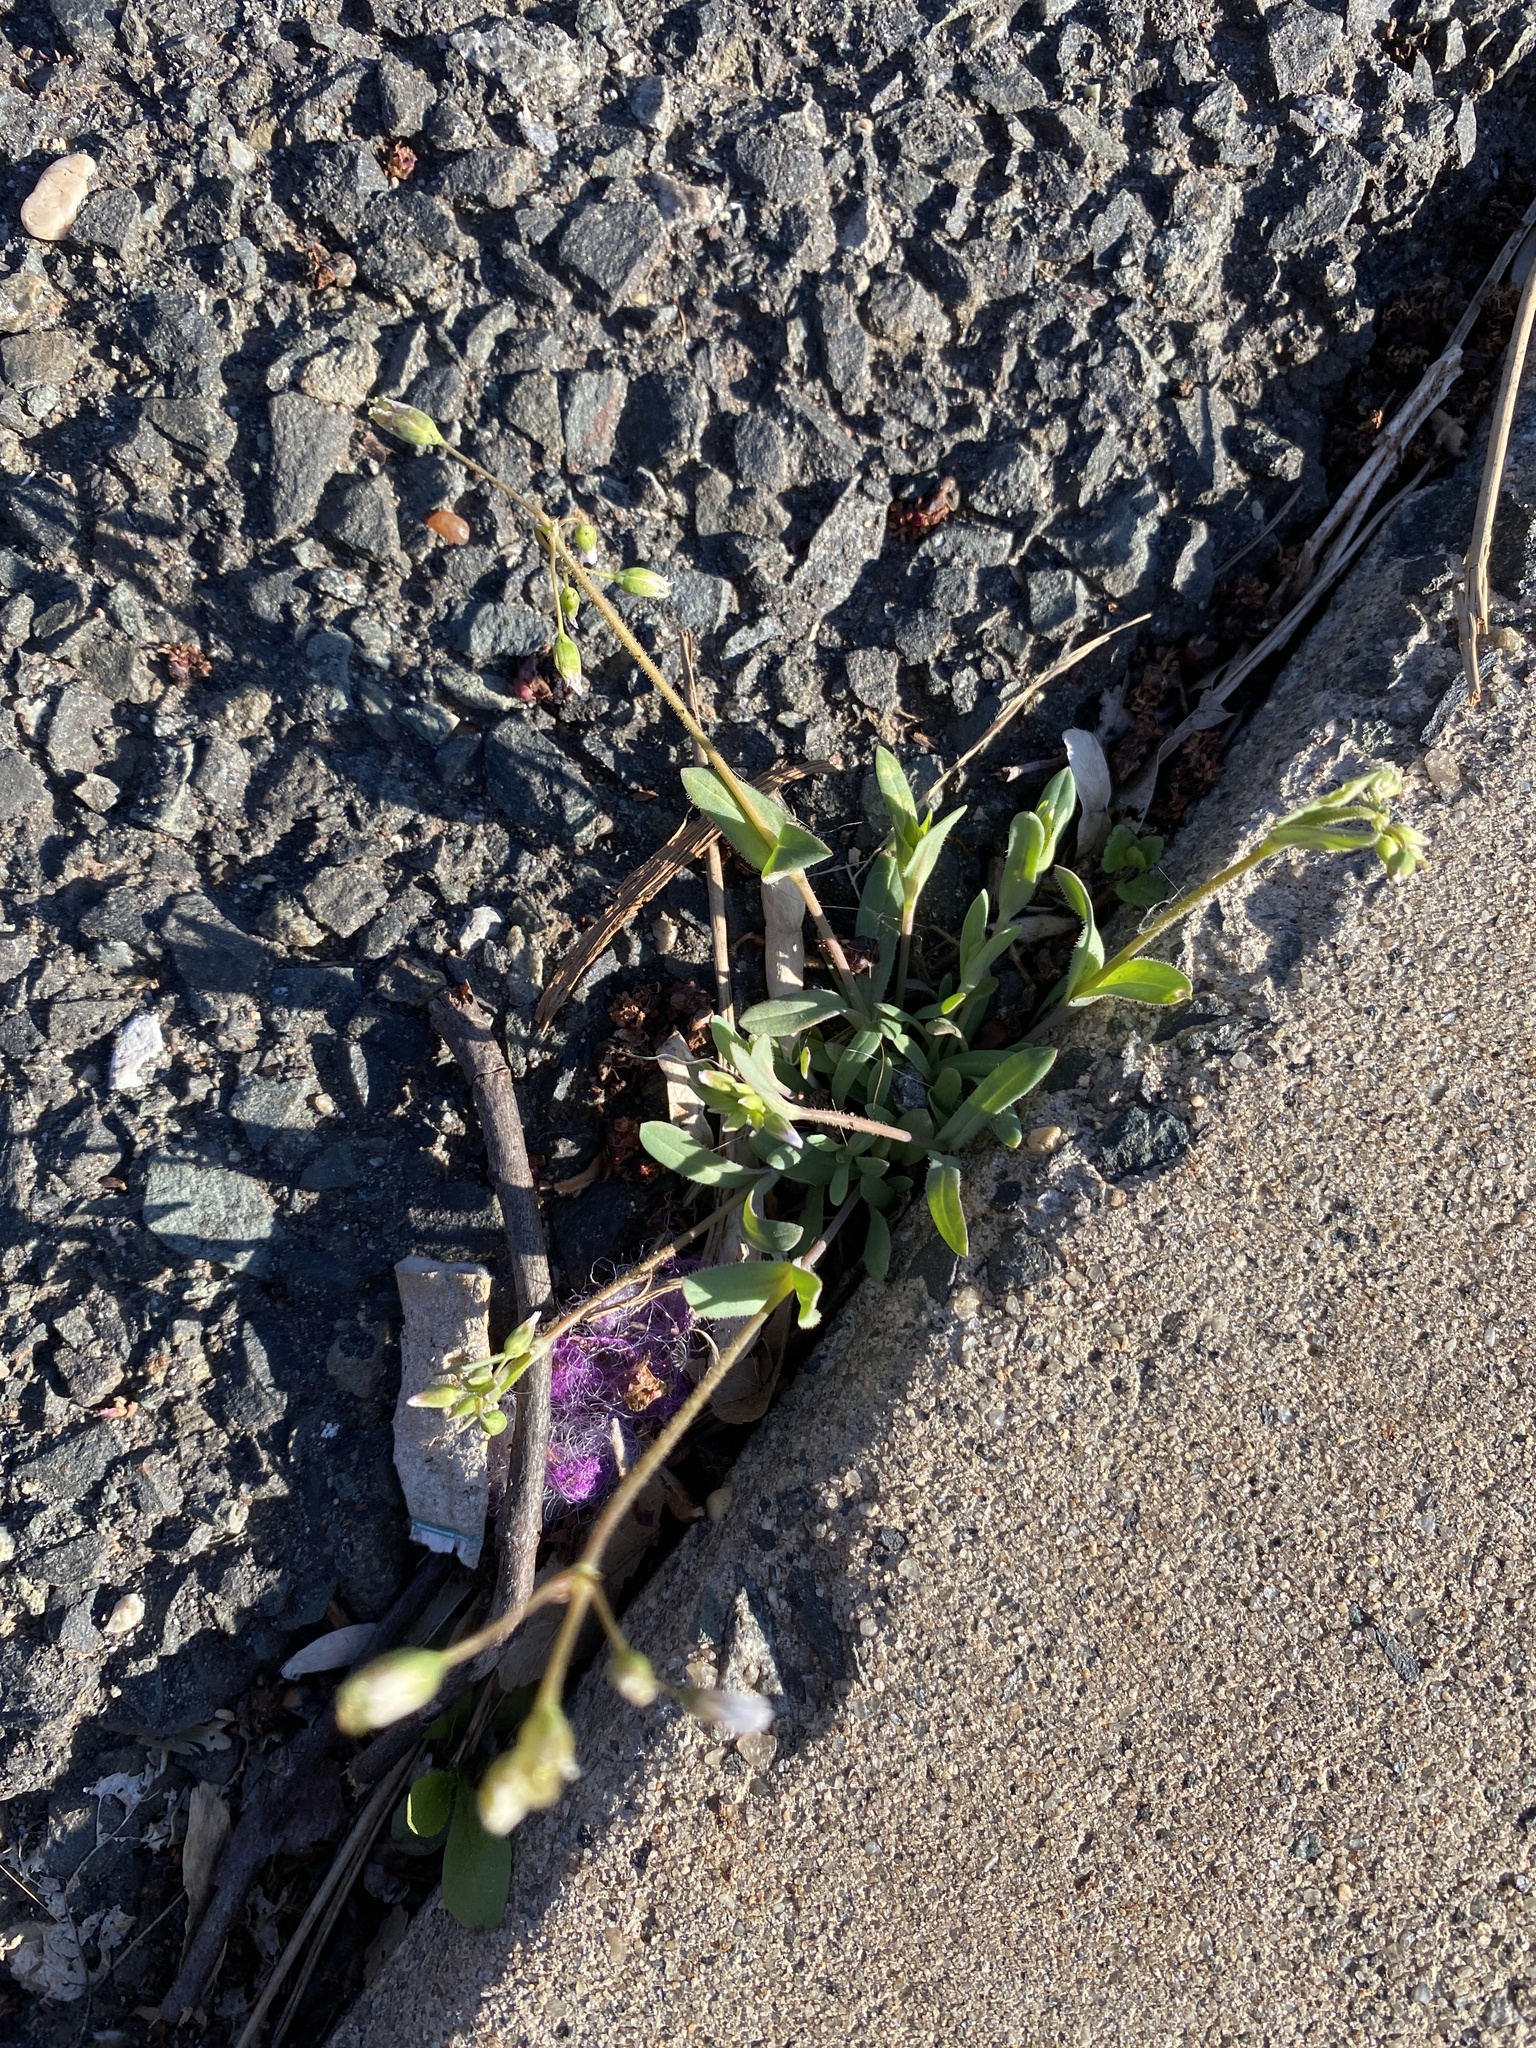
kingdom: Plantae
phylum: Tracheophyta
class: Magnoliopsida
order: Caryophyllales
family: Caryophyllaceae
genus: Holosteum
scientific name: Holosteum umbellatum
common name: Jagged chickweed
